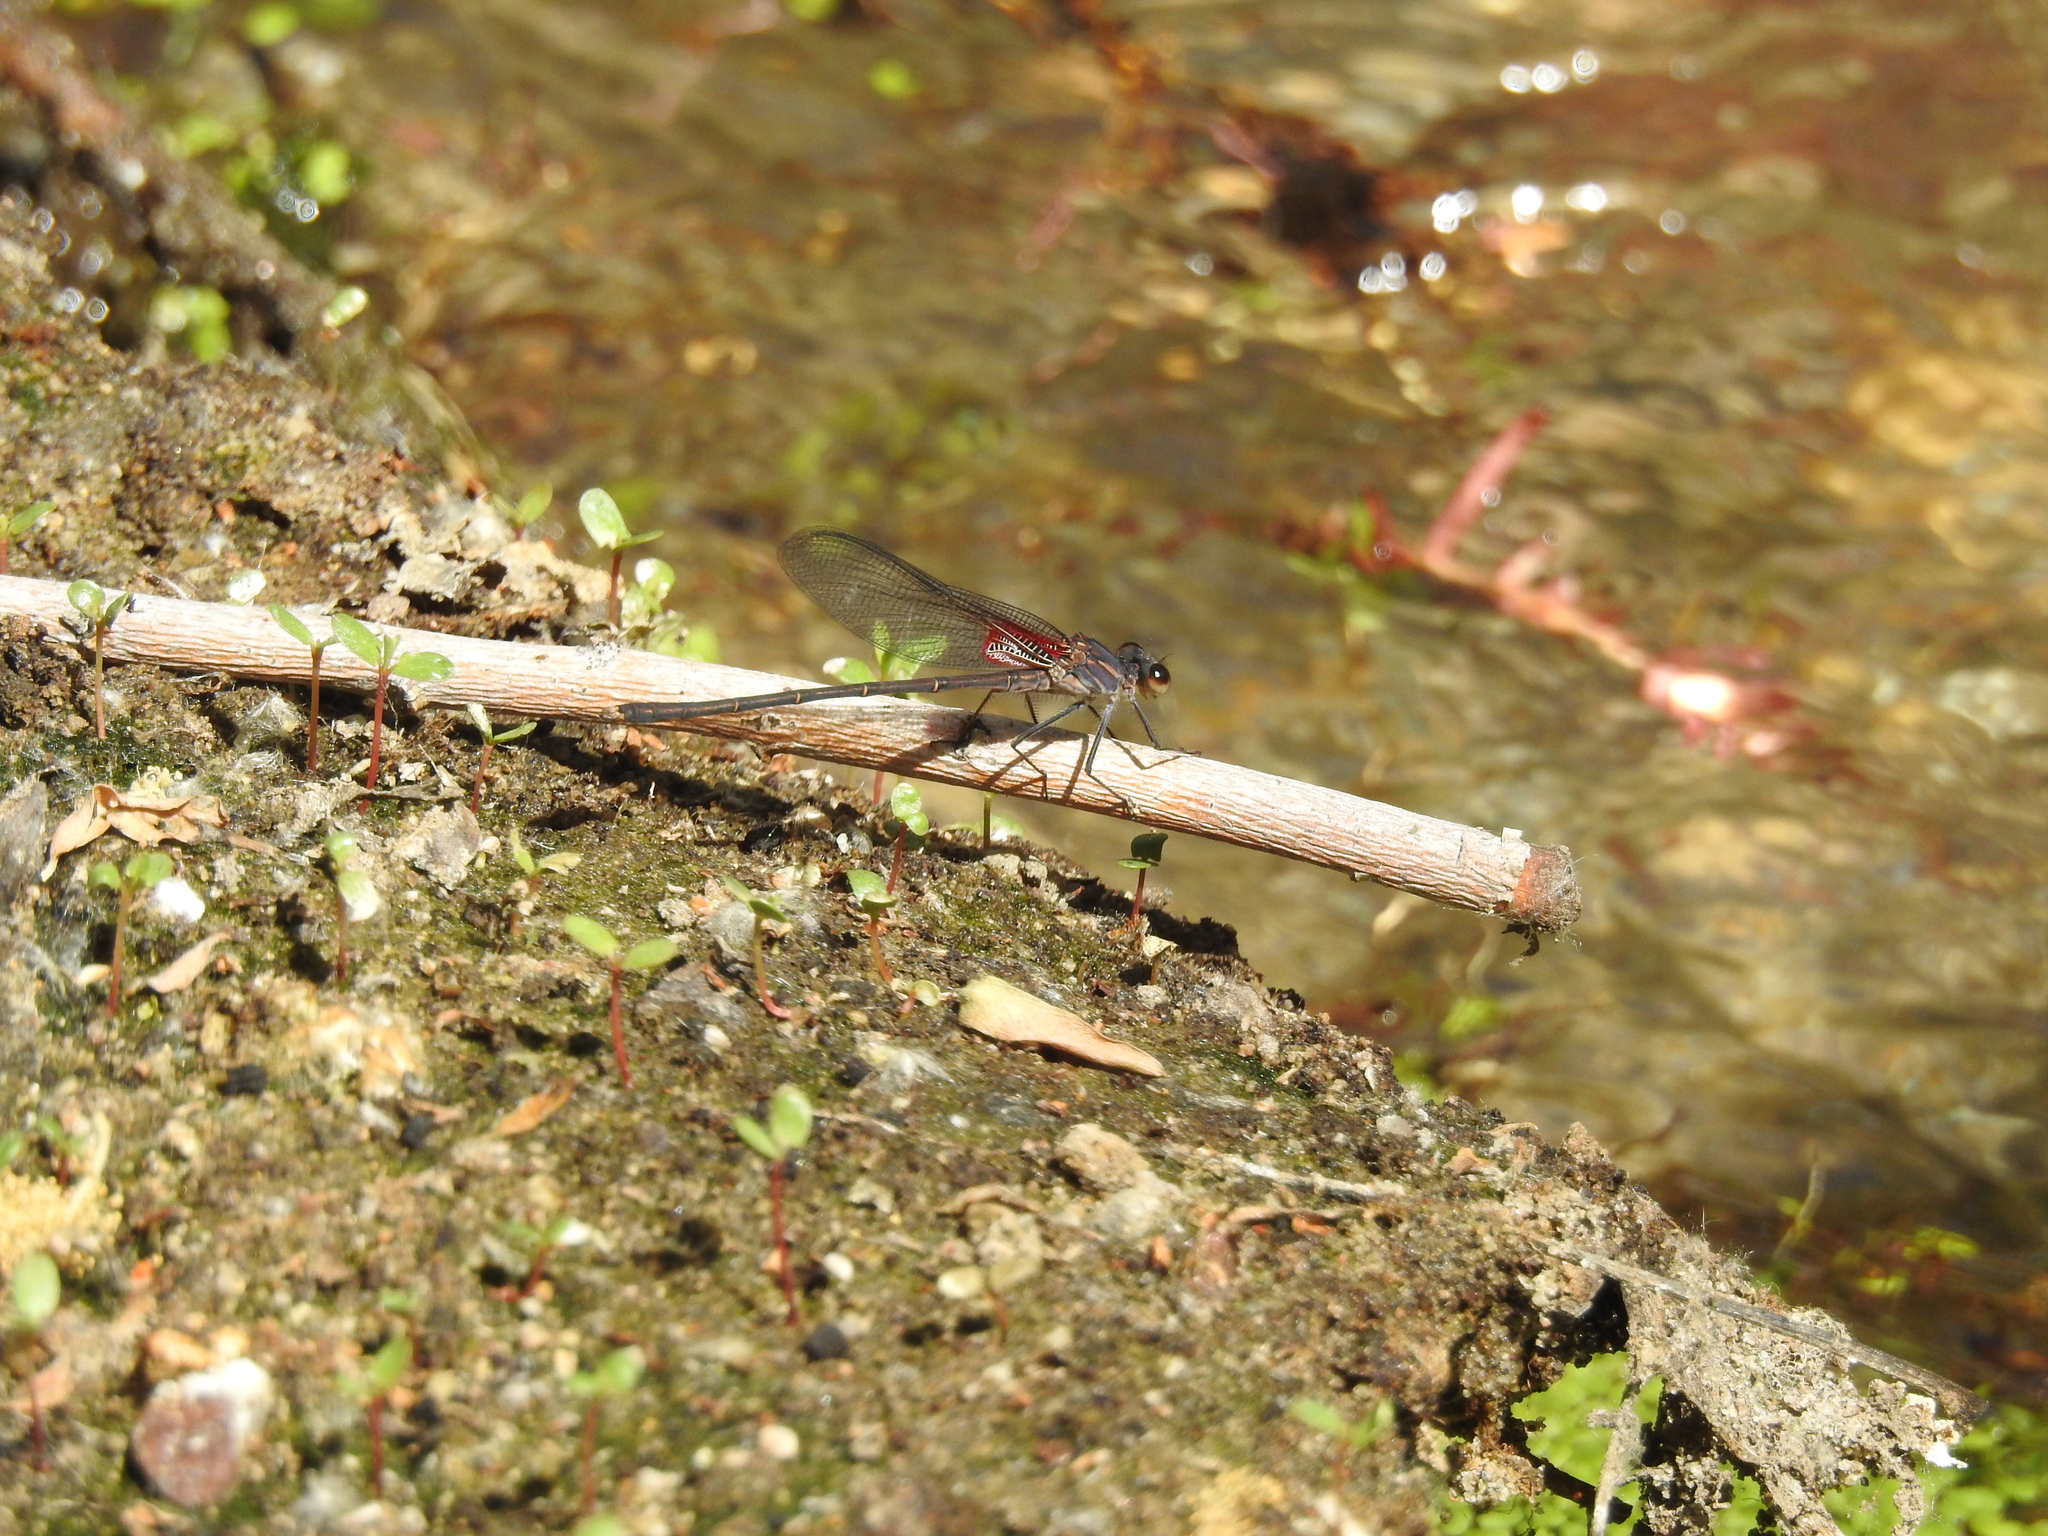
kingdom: Animalia
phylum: Arthropoda
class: Insecta
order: Odonata
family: Calopterygidae
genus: Hetaerina
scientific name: Hetaerina americana
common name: American rubyspot
